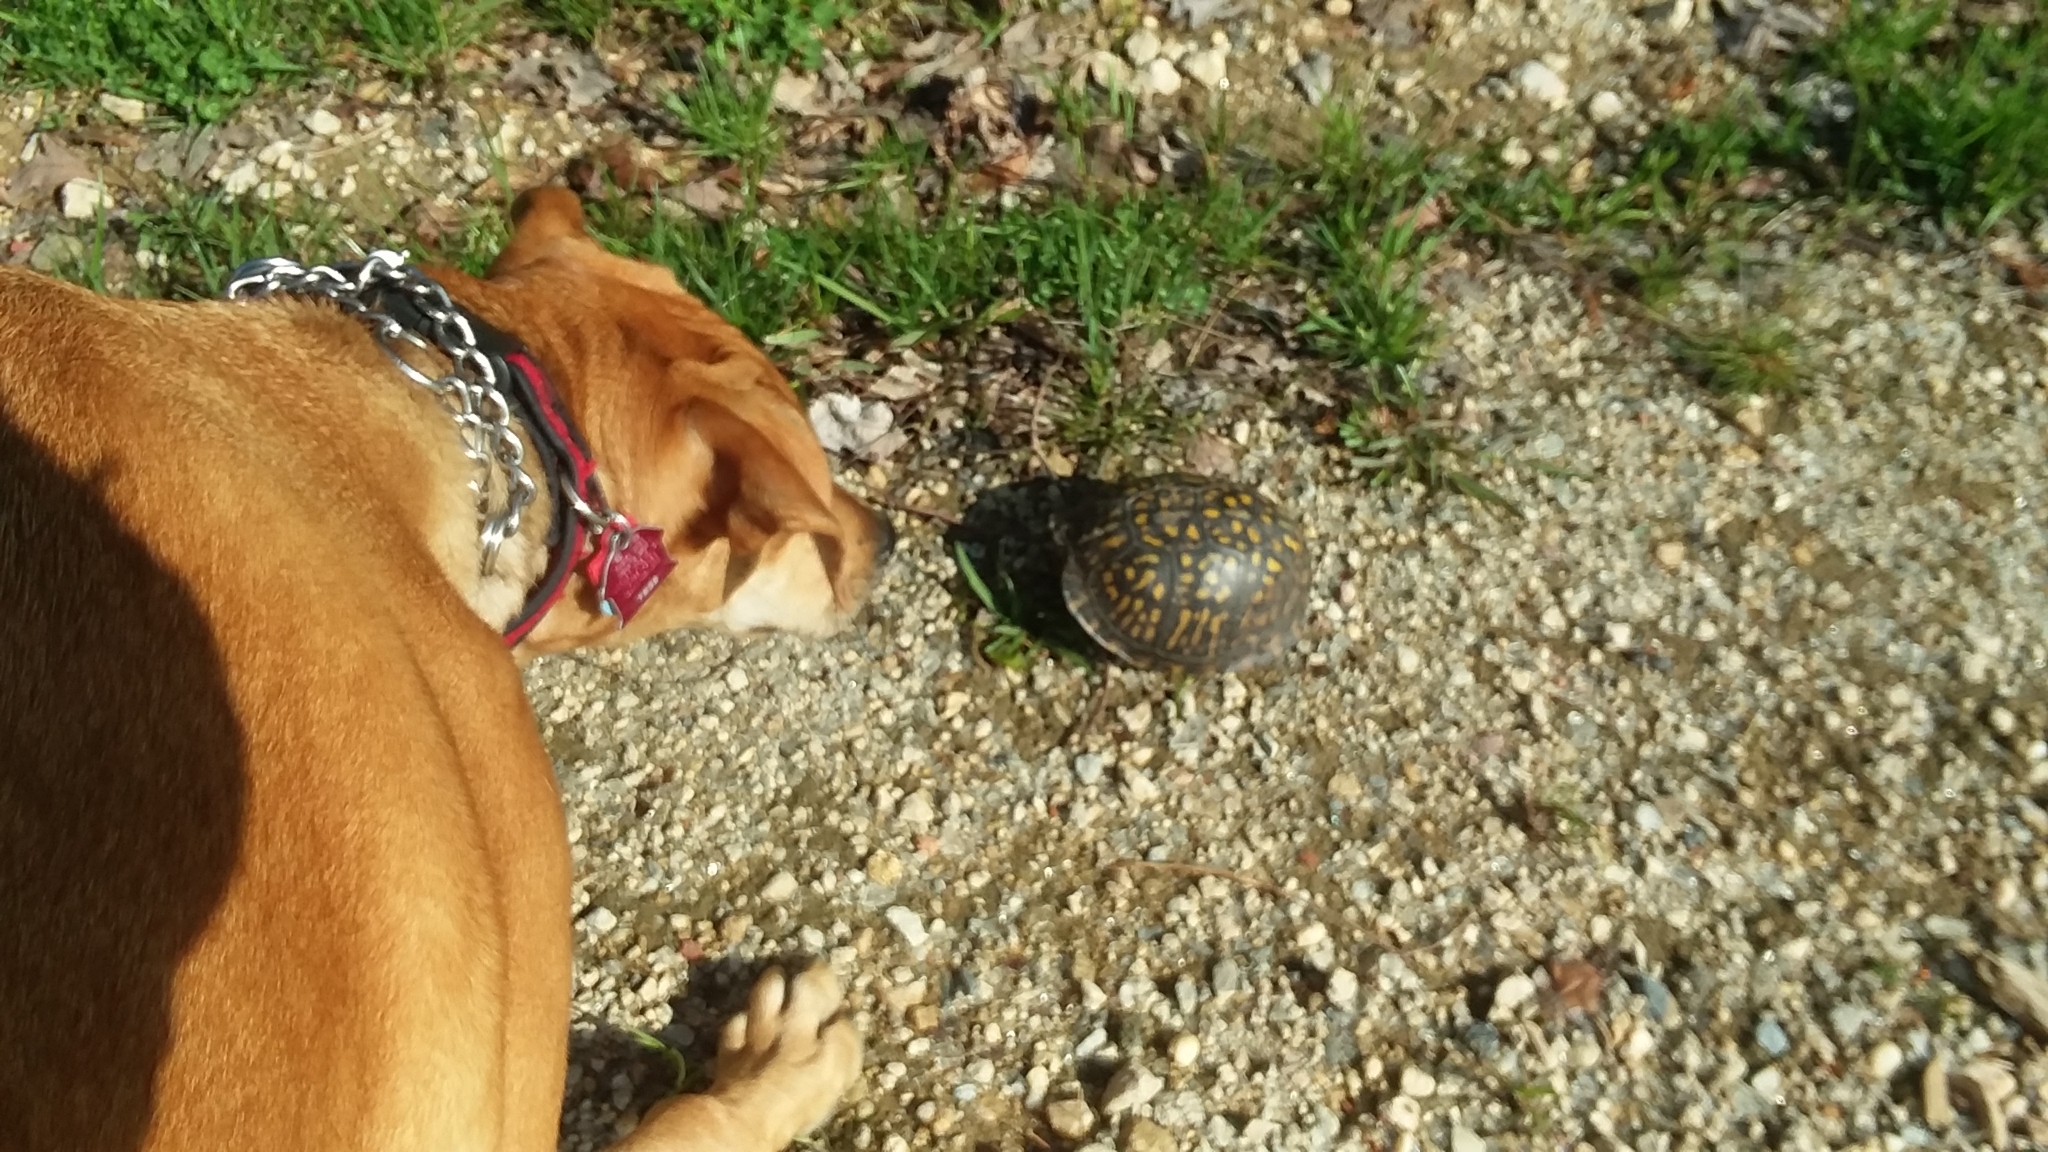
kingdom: Animalia
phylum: Chordata
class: Testudines
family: Emydidae
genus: Terrapene
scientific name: Terrapene carolina
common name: Common box turtle
